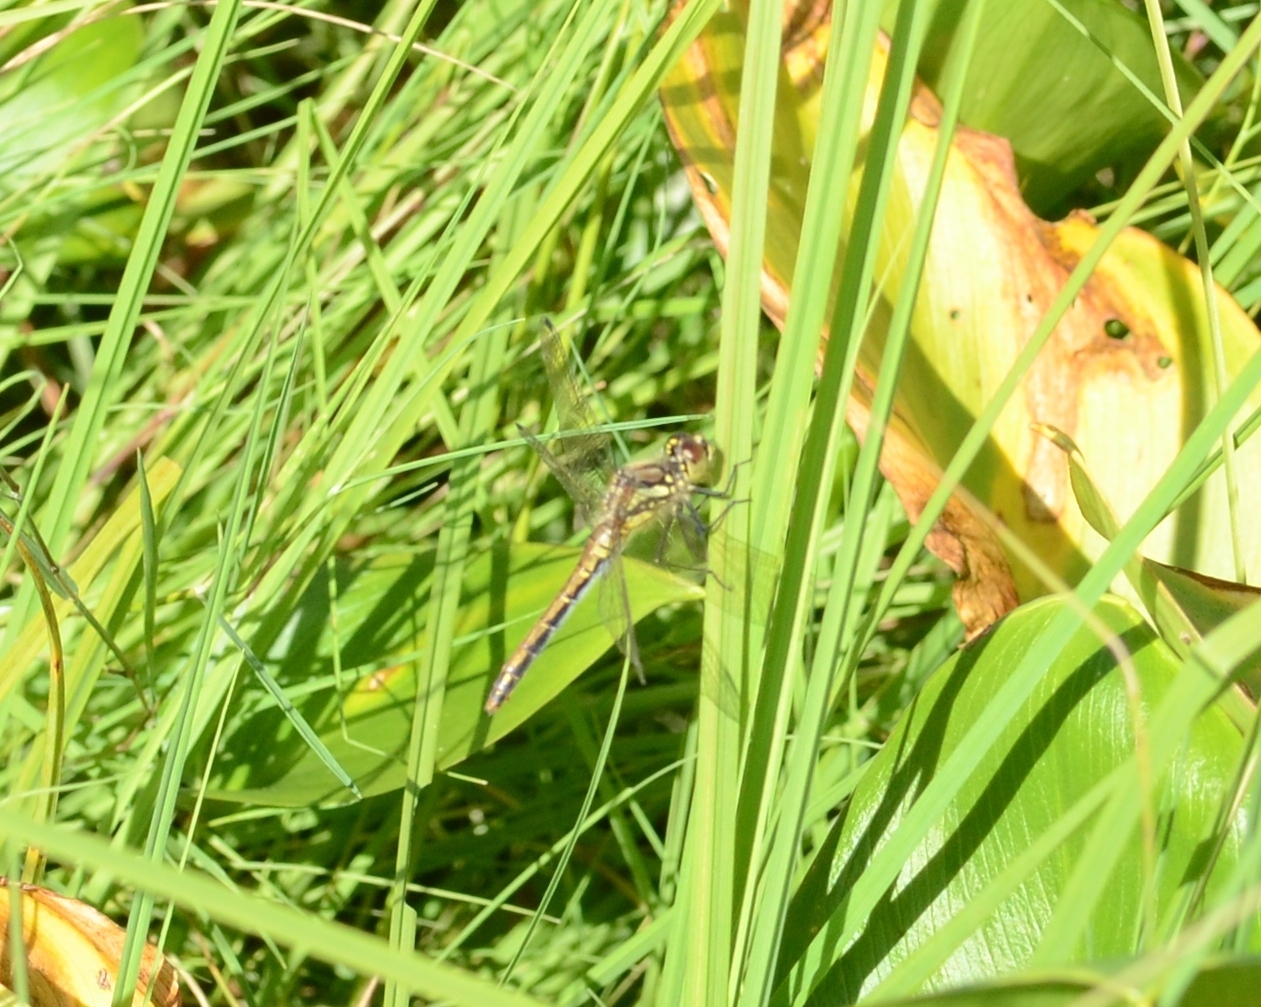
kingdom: Animalia
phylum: Arthropoda
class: Insecta
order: Odonata
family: Libellulidae
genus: Sympetrum
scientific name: Sympetrum danae
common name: Black darter
